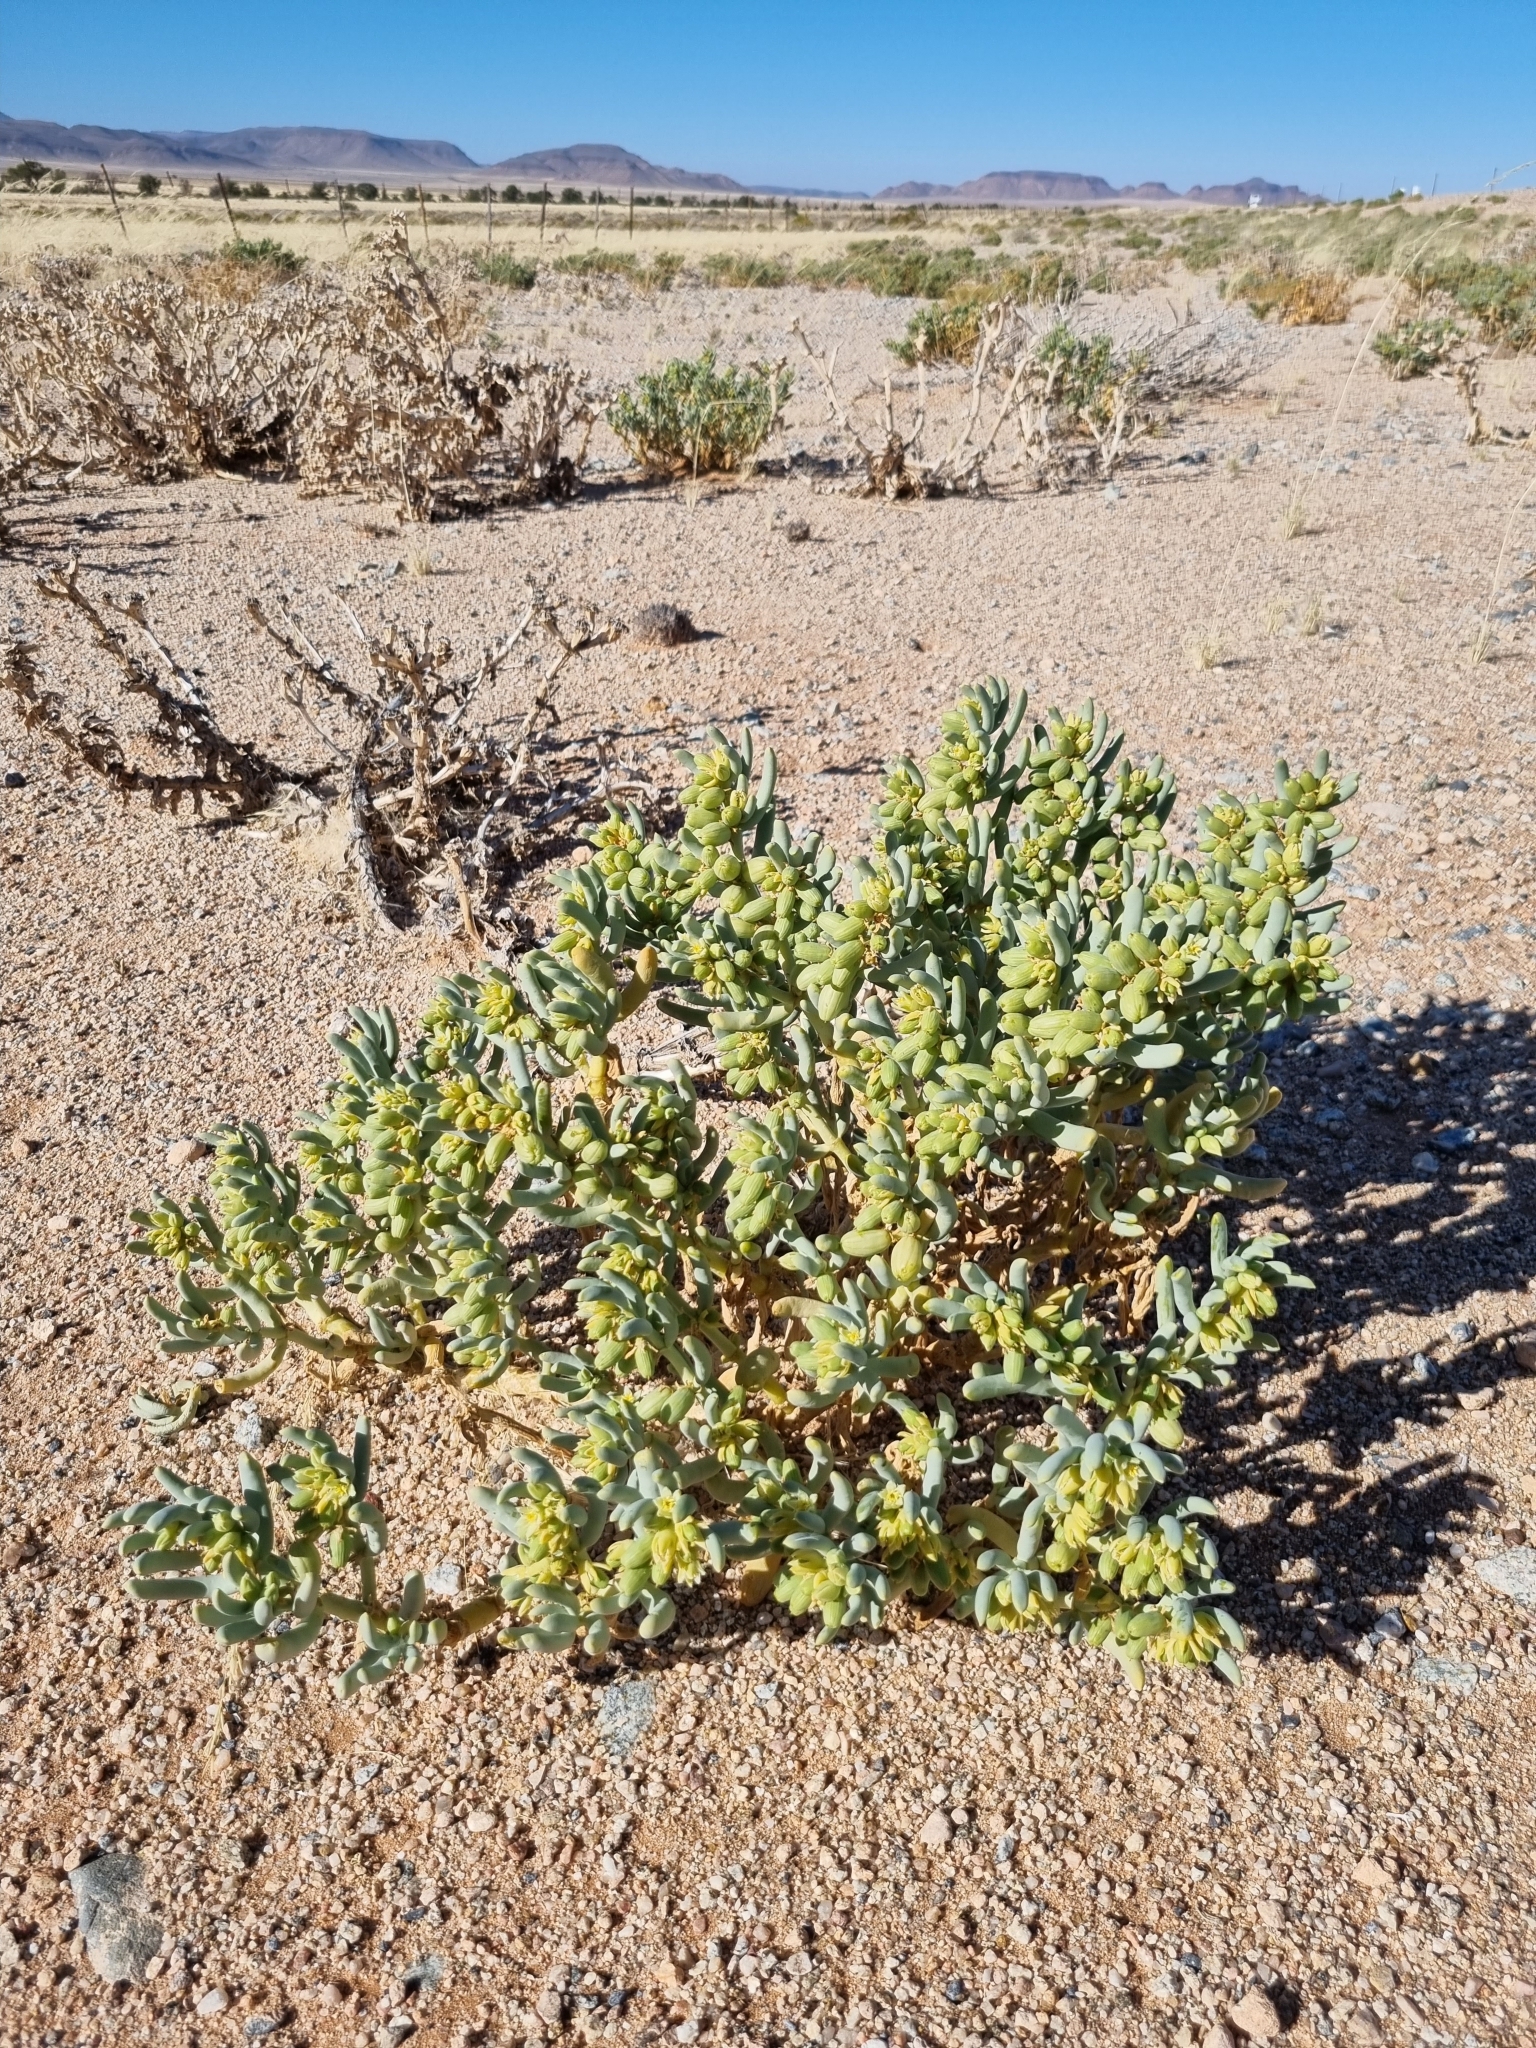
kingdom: Plantae
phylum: Tracheophyta
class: Magnoliopsida
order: Zygophyllales
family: Zygophyllaceae
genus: Augea
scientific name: Augea capensis
